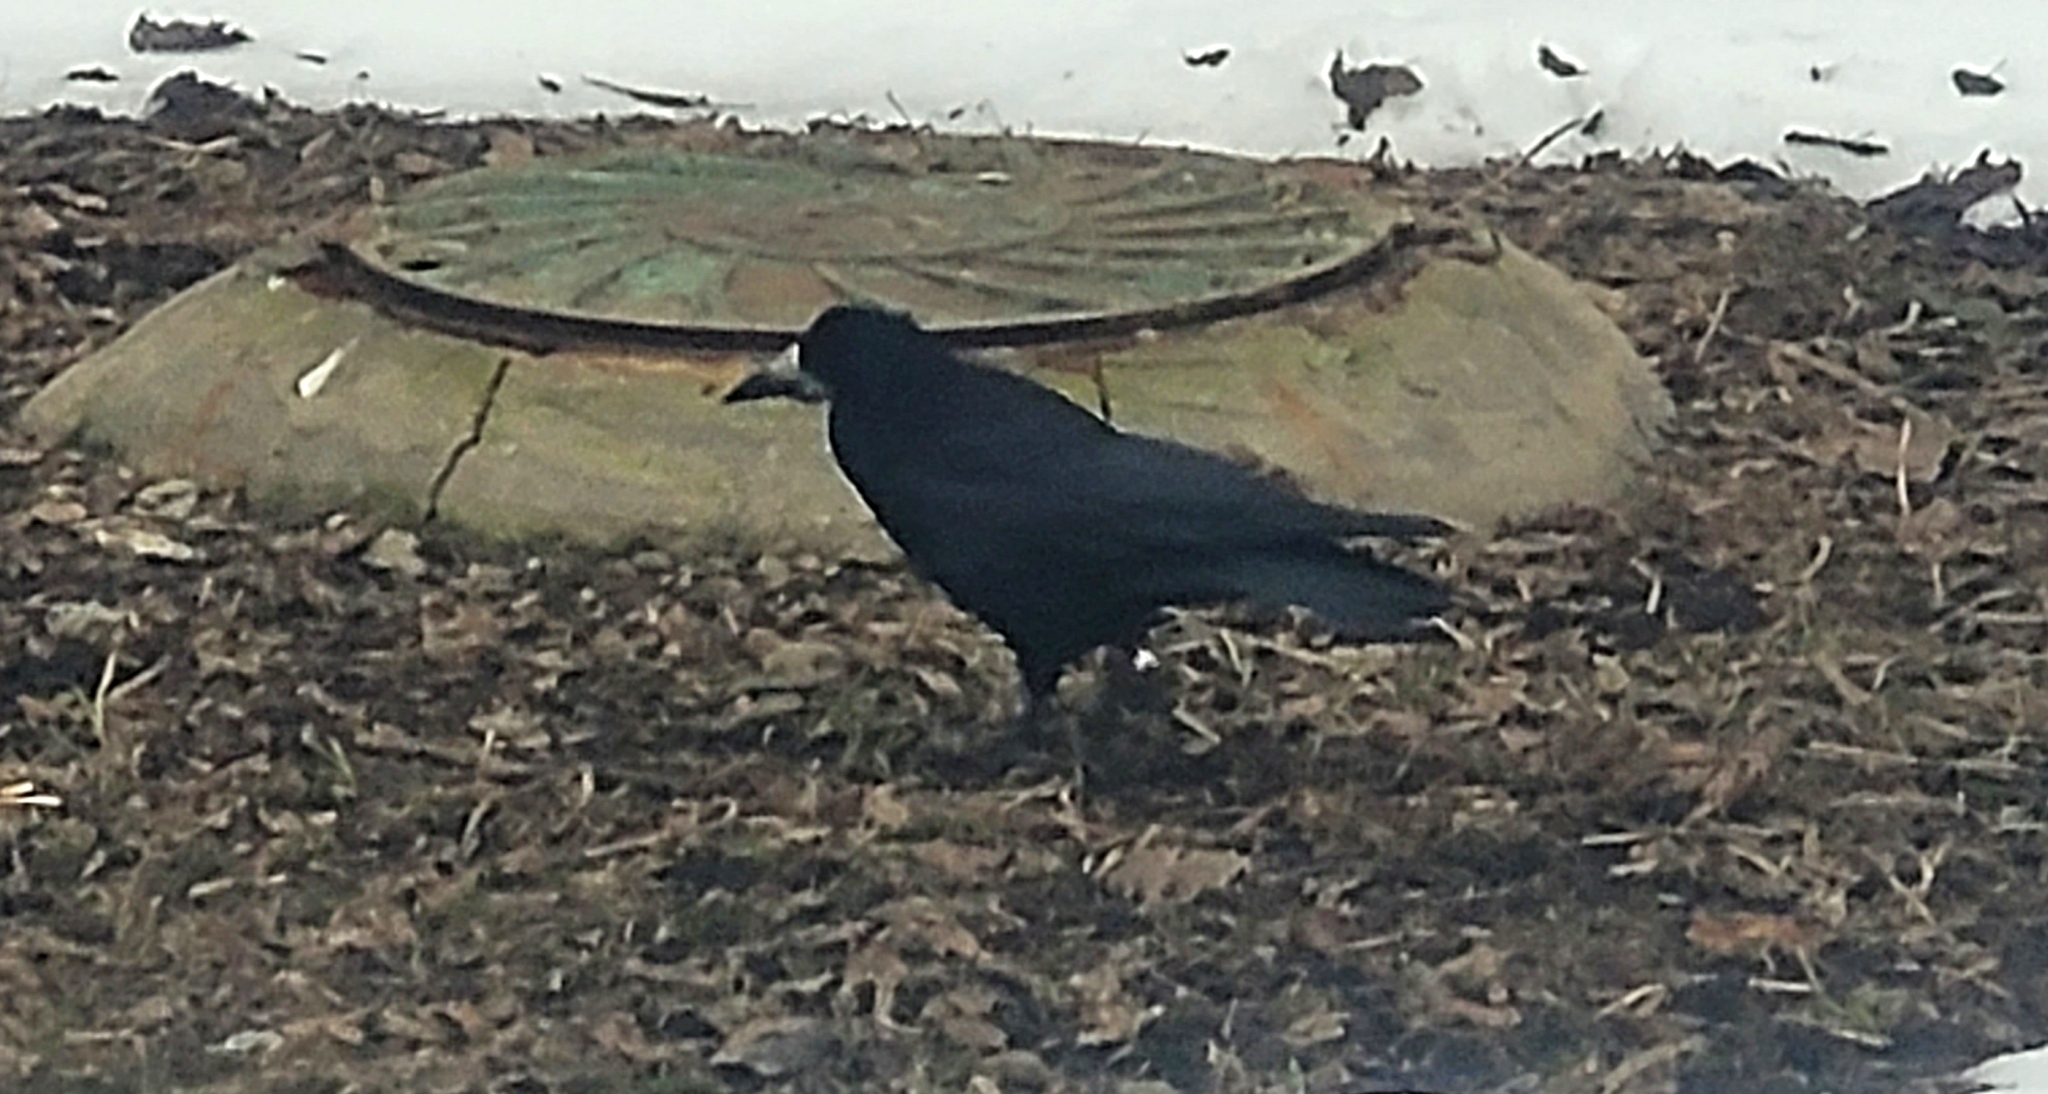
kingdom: Animalia
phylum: Chordata
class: Aves
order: Passeriformes
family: Corvidae
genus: Corvus
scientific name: Corvus frugilegus
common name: Rook
